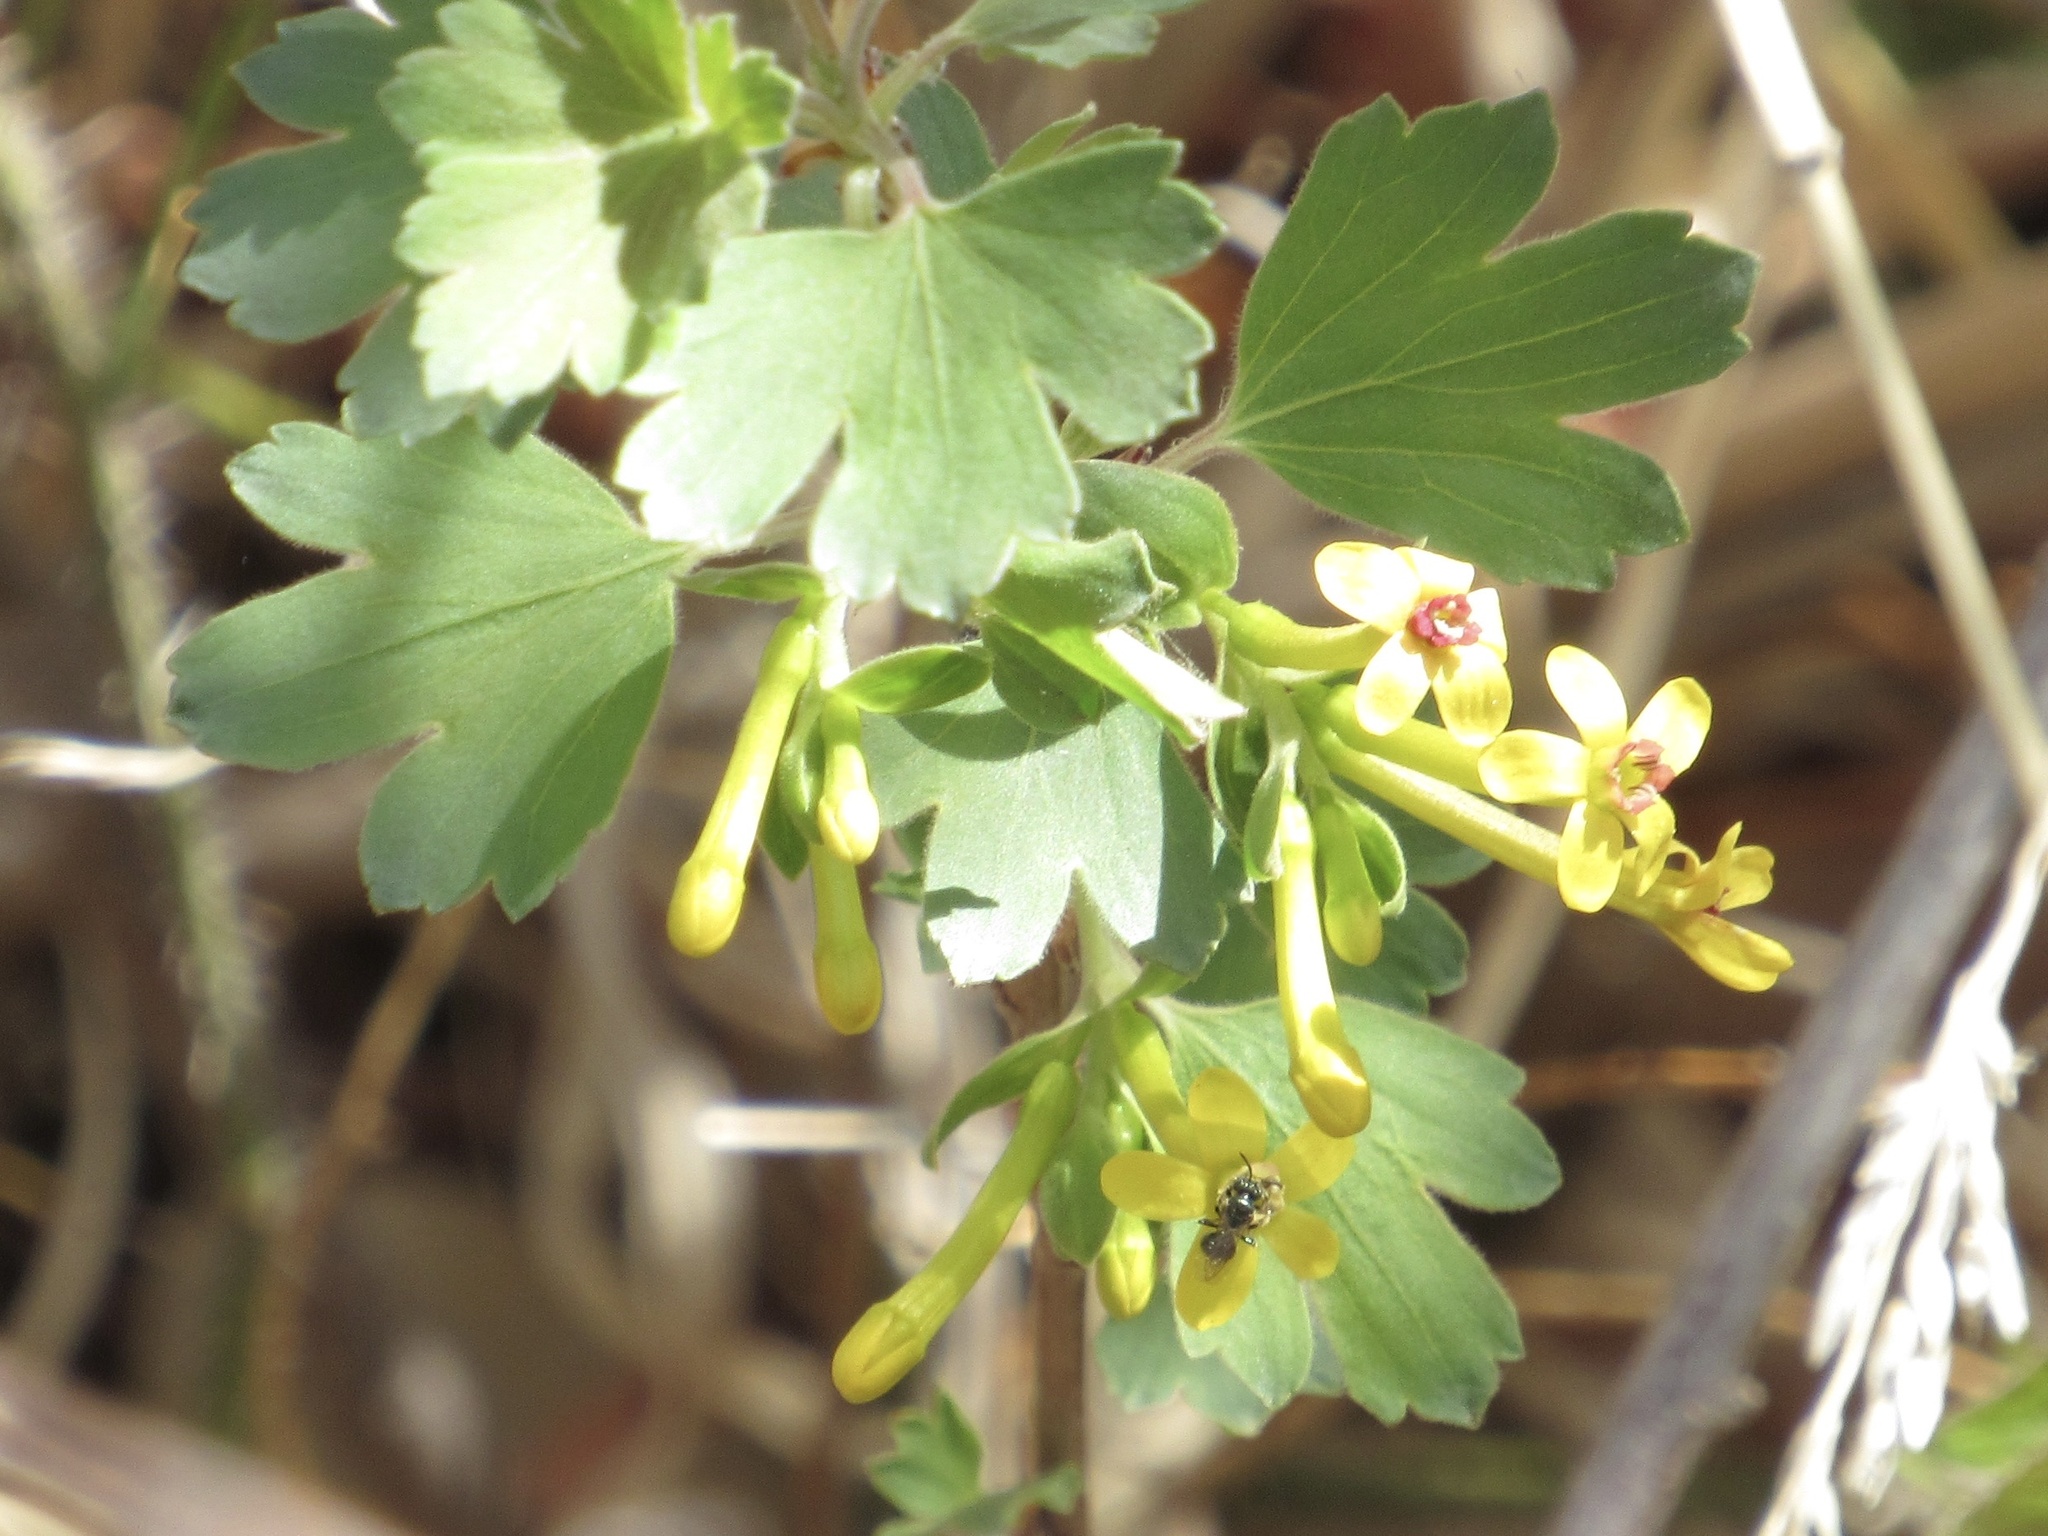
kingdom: Plantae
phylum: Tracheophyta
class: Magnoliopsida
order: Saxifragales
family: Grossulariaceae
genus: Ribes
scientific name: Ribes aureum
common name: Golden currant
